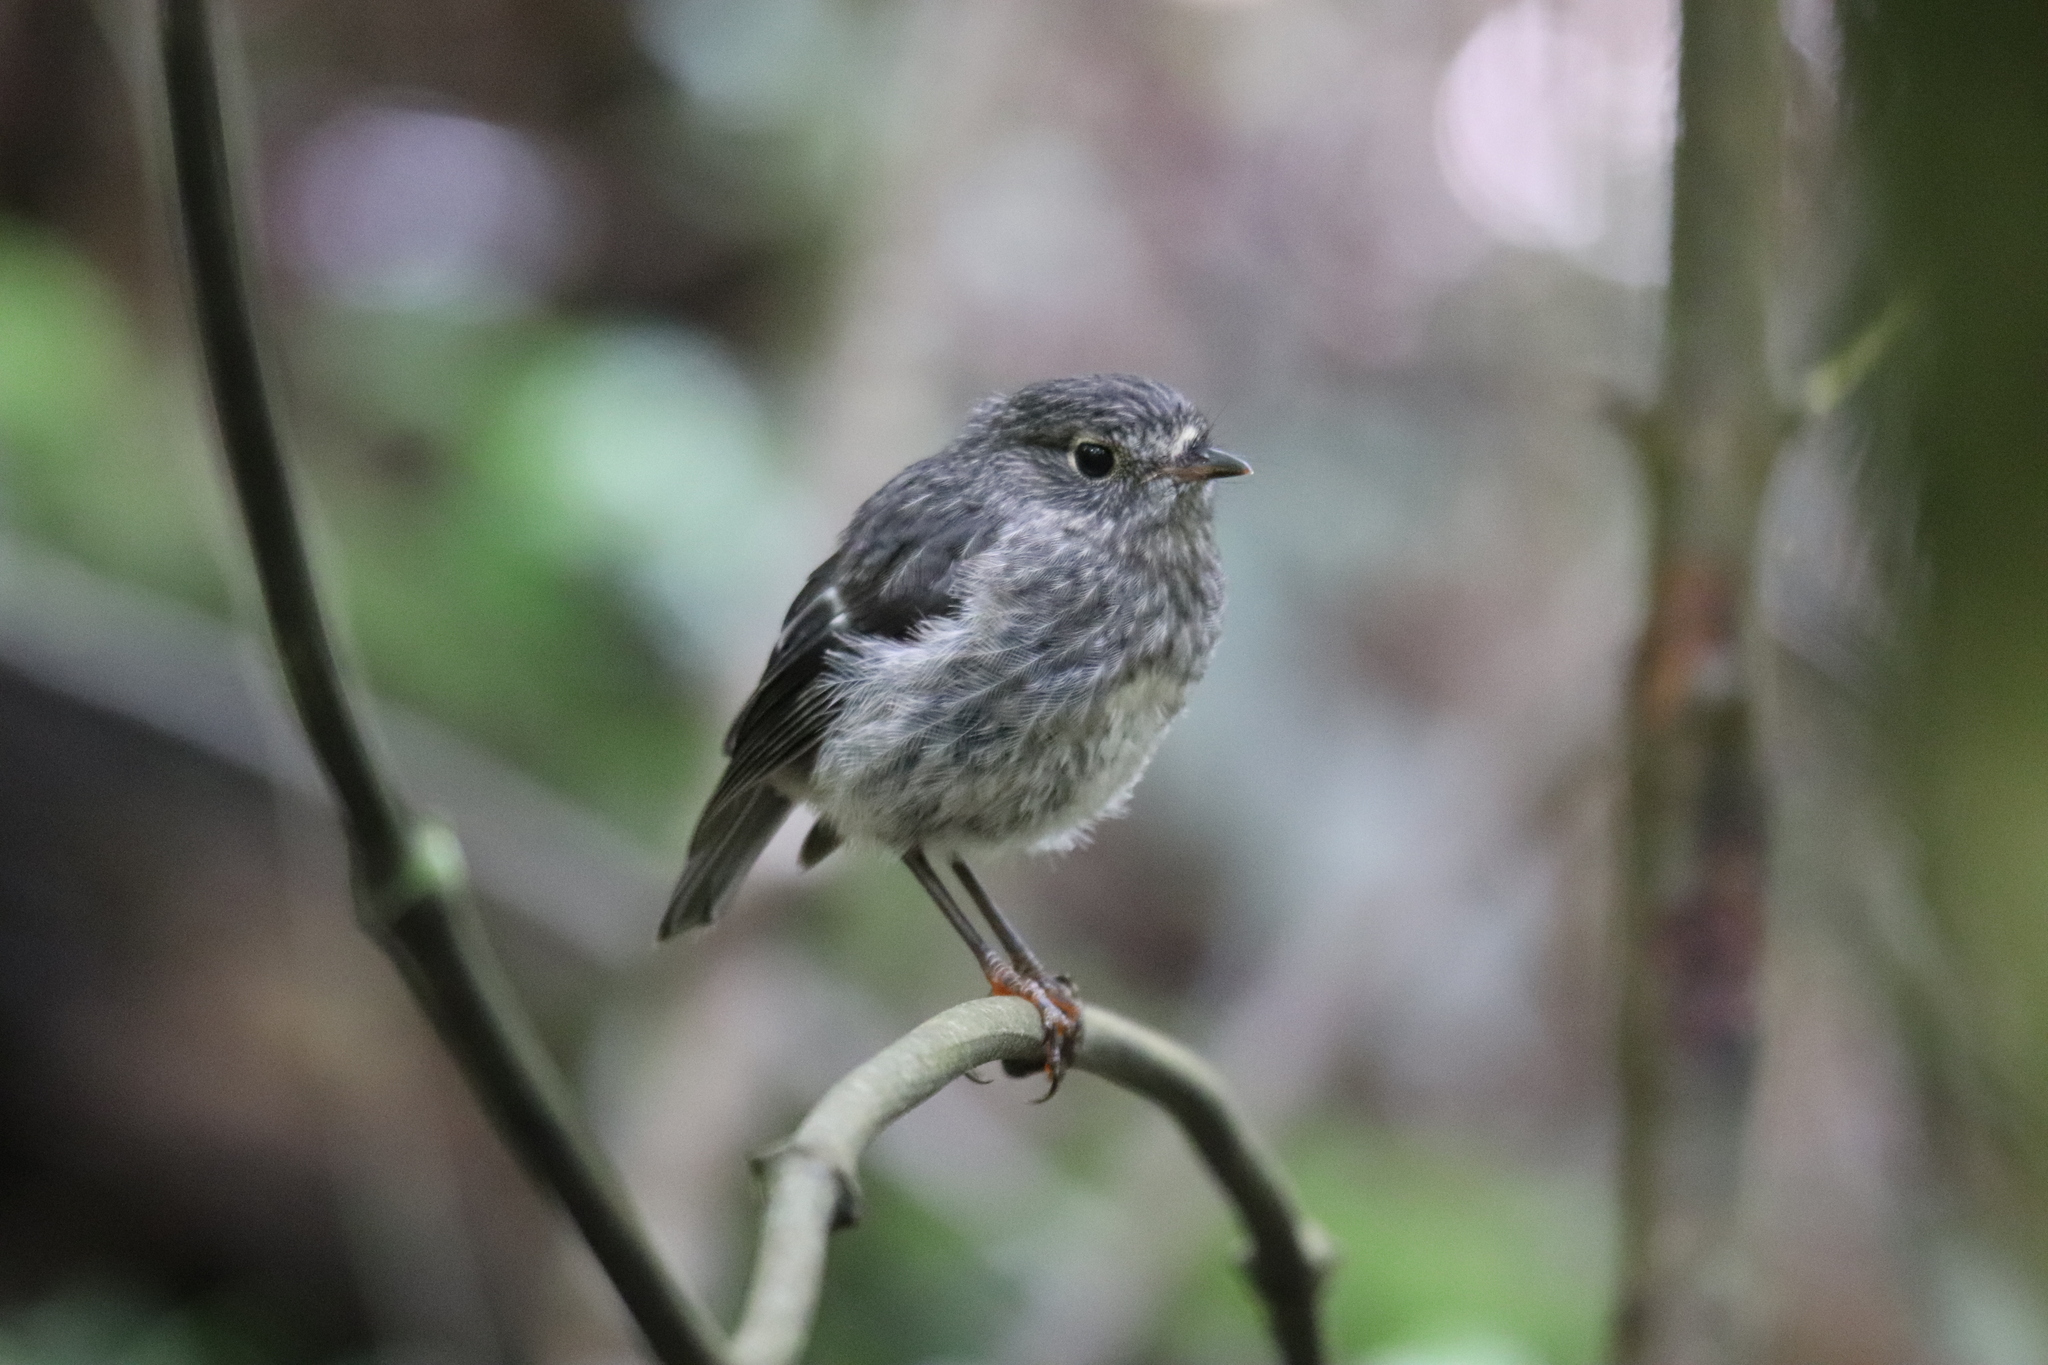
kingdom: Animalia
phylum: Chordata
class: Aves
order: Passeriformes
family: Petroicidae
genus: Petroica
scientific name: Petroica australis
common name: New zealand robin
